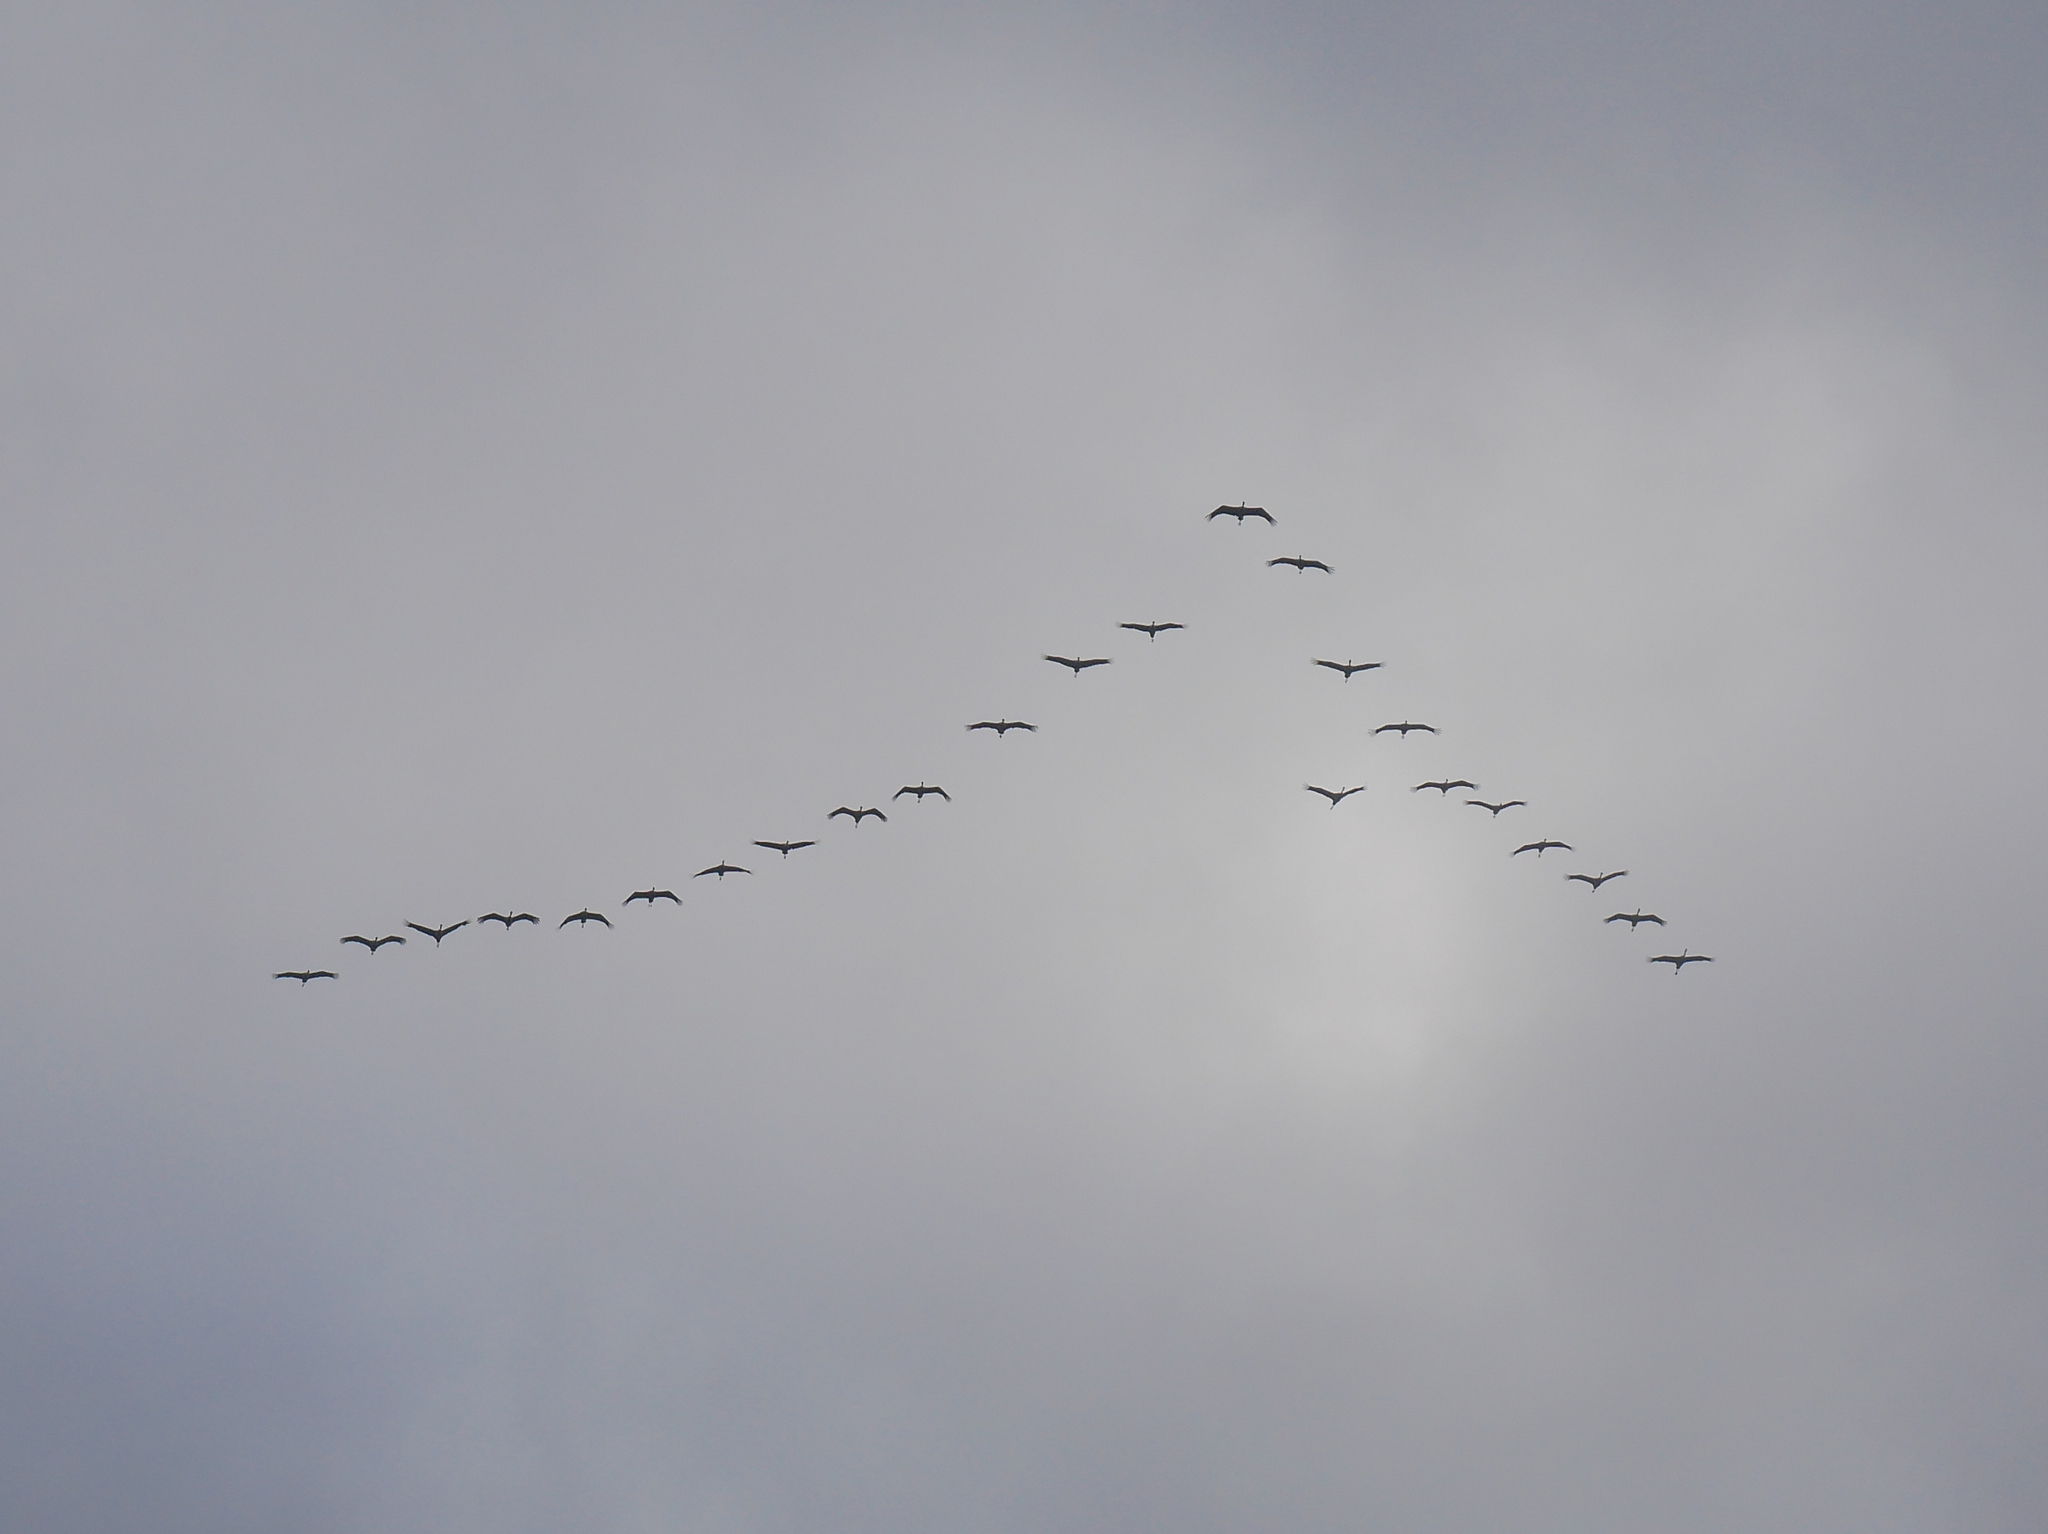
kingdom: Animalia
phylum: Chordata
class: Aves
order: Gruiformes
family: Gruidae
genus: Grus
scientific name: Grus grus
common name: Common crane
